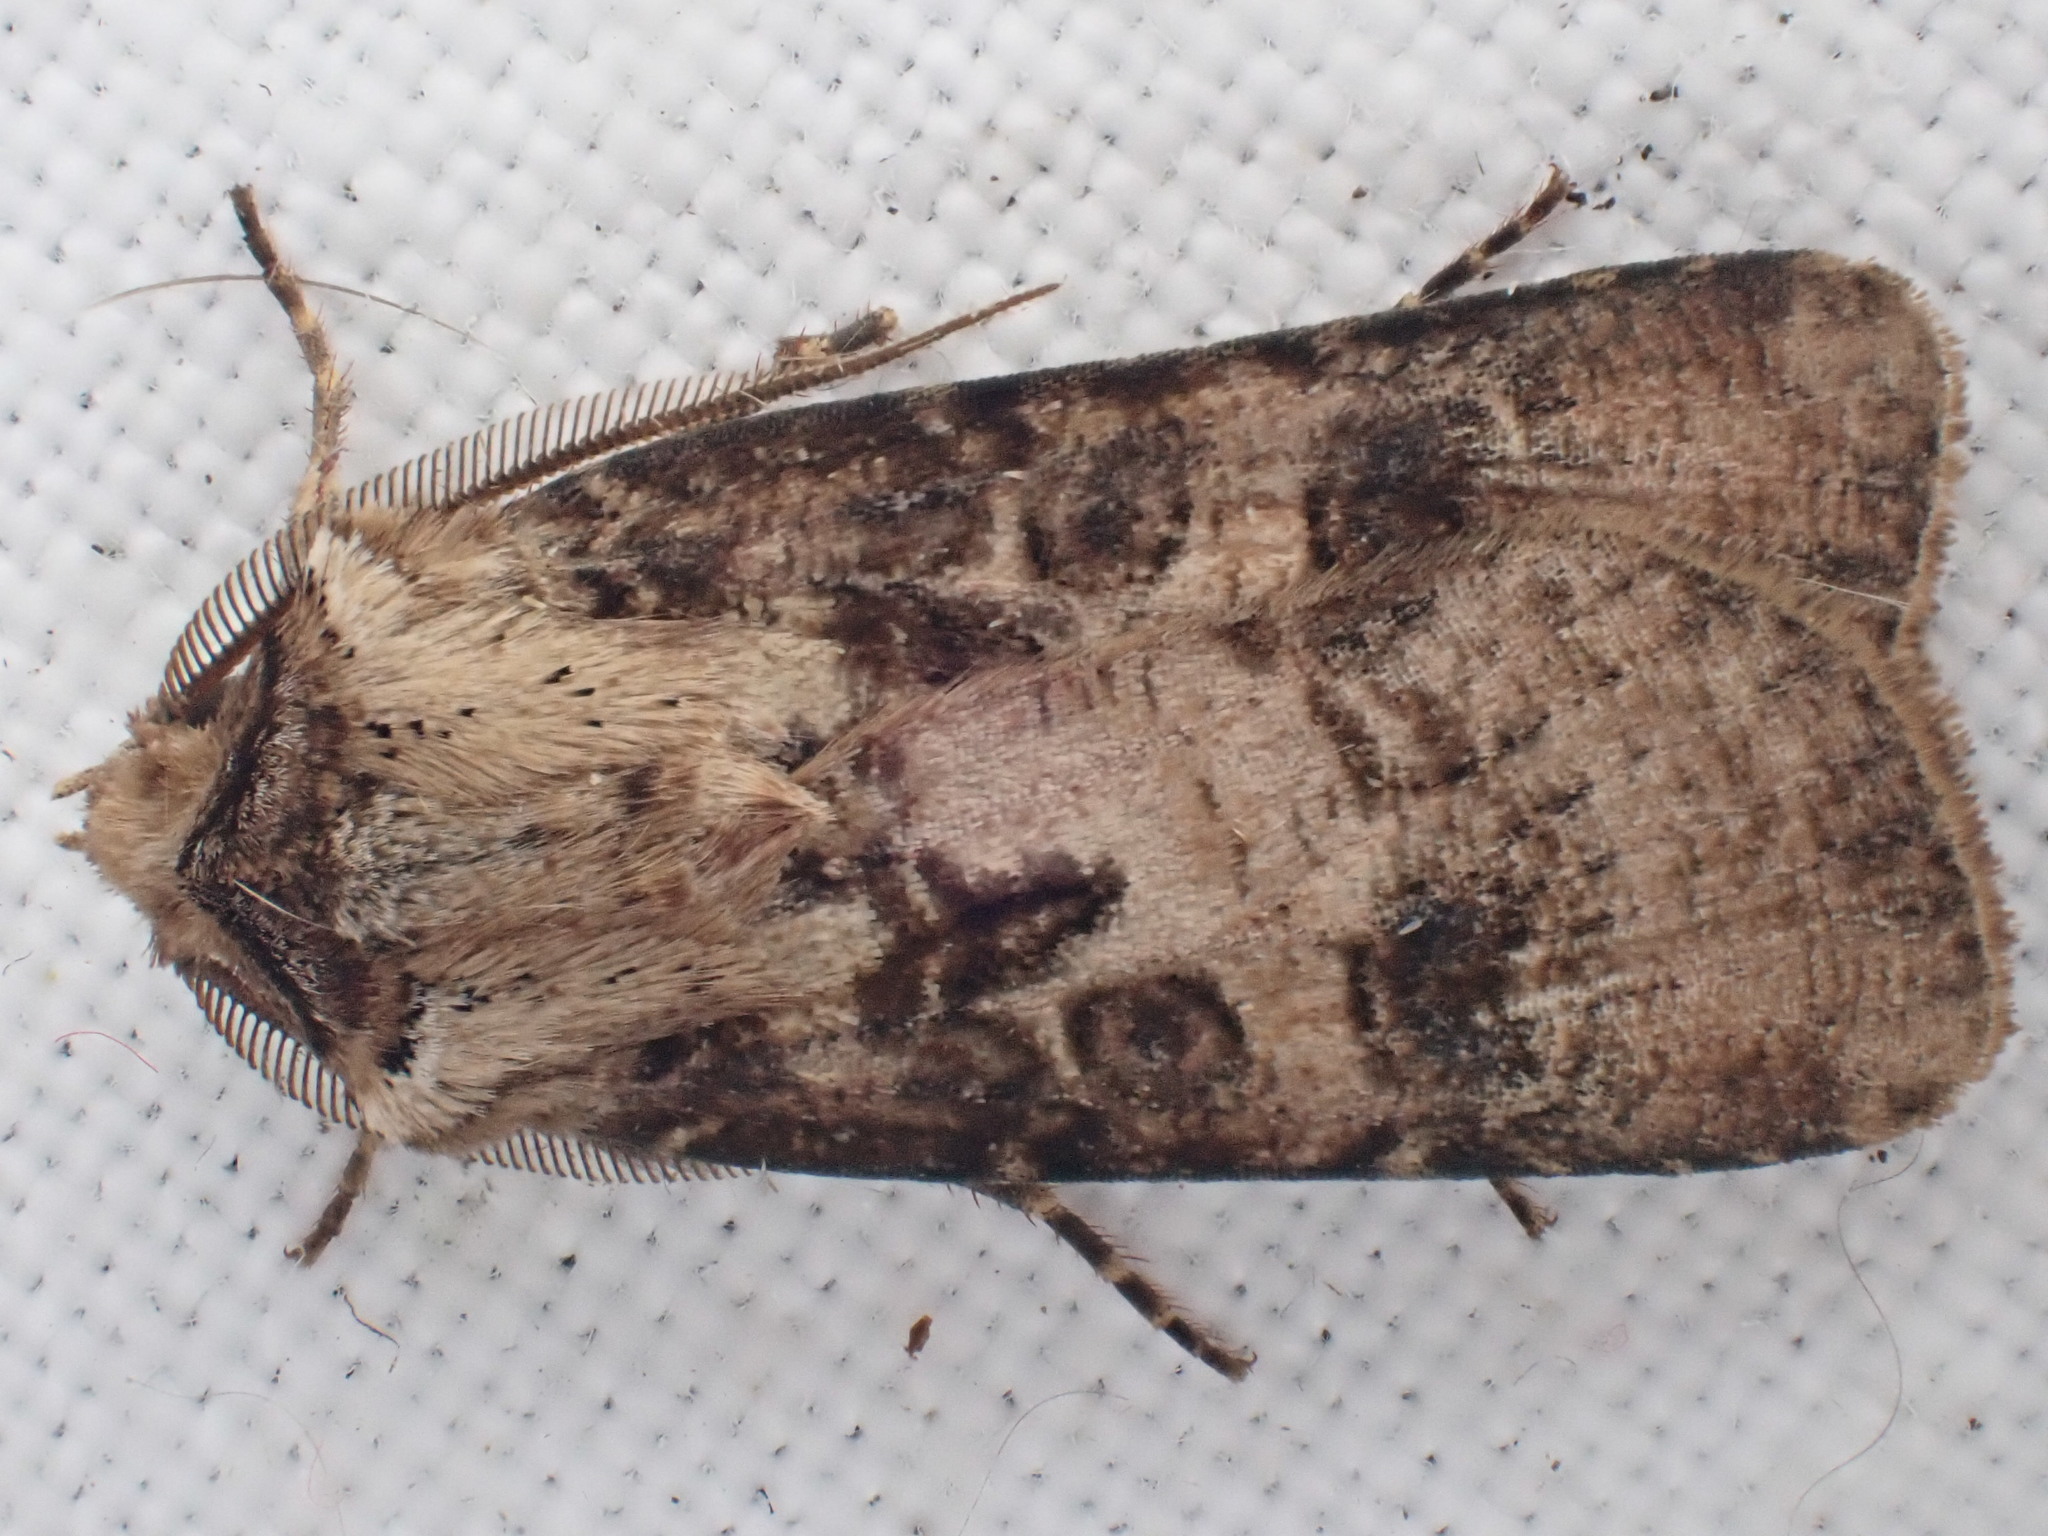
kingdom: Animalia
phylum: Arthropoda
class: Insecta
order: Lepidoptera
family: Noctuidae
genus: Agrotis
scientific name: Agrotis clavis
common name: Heart and club
